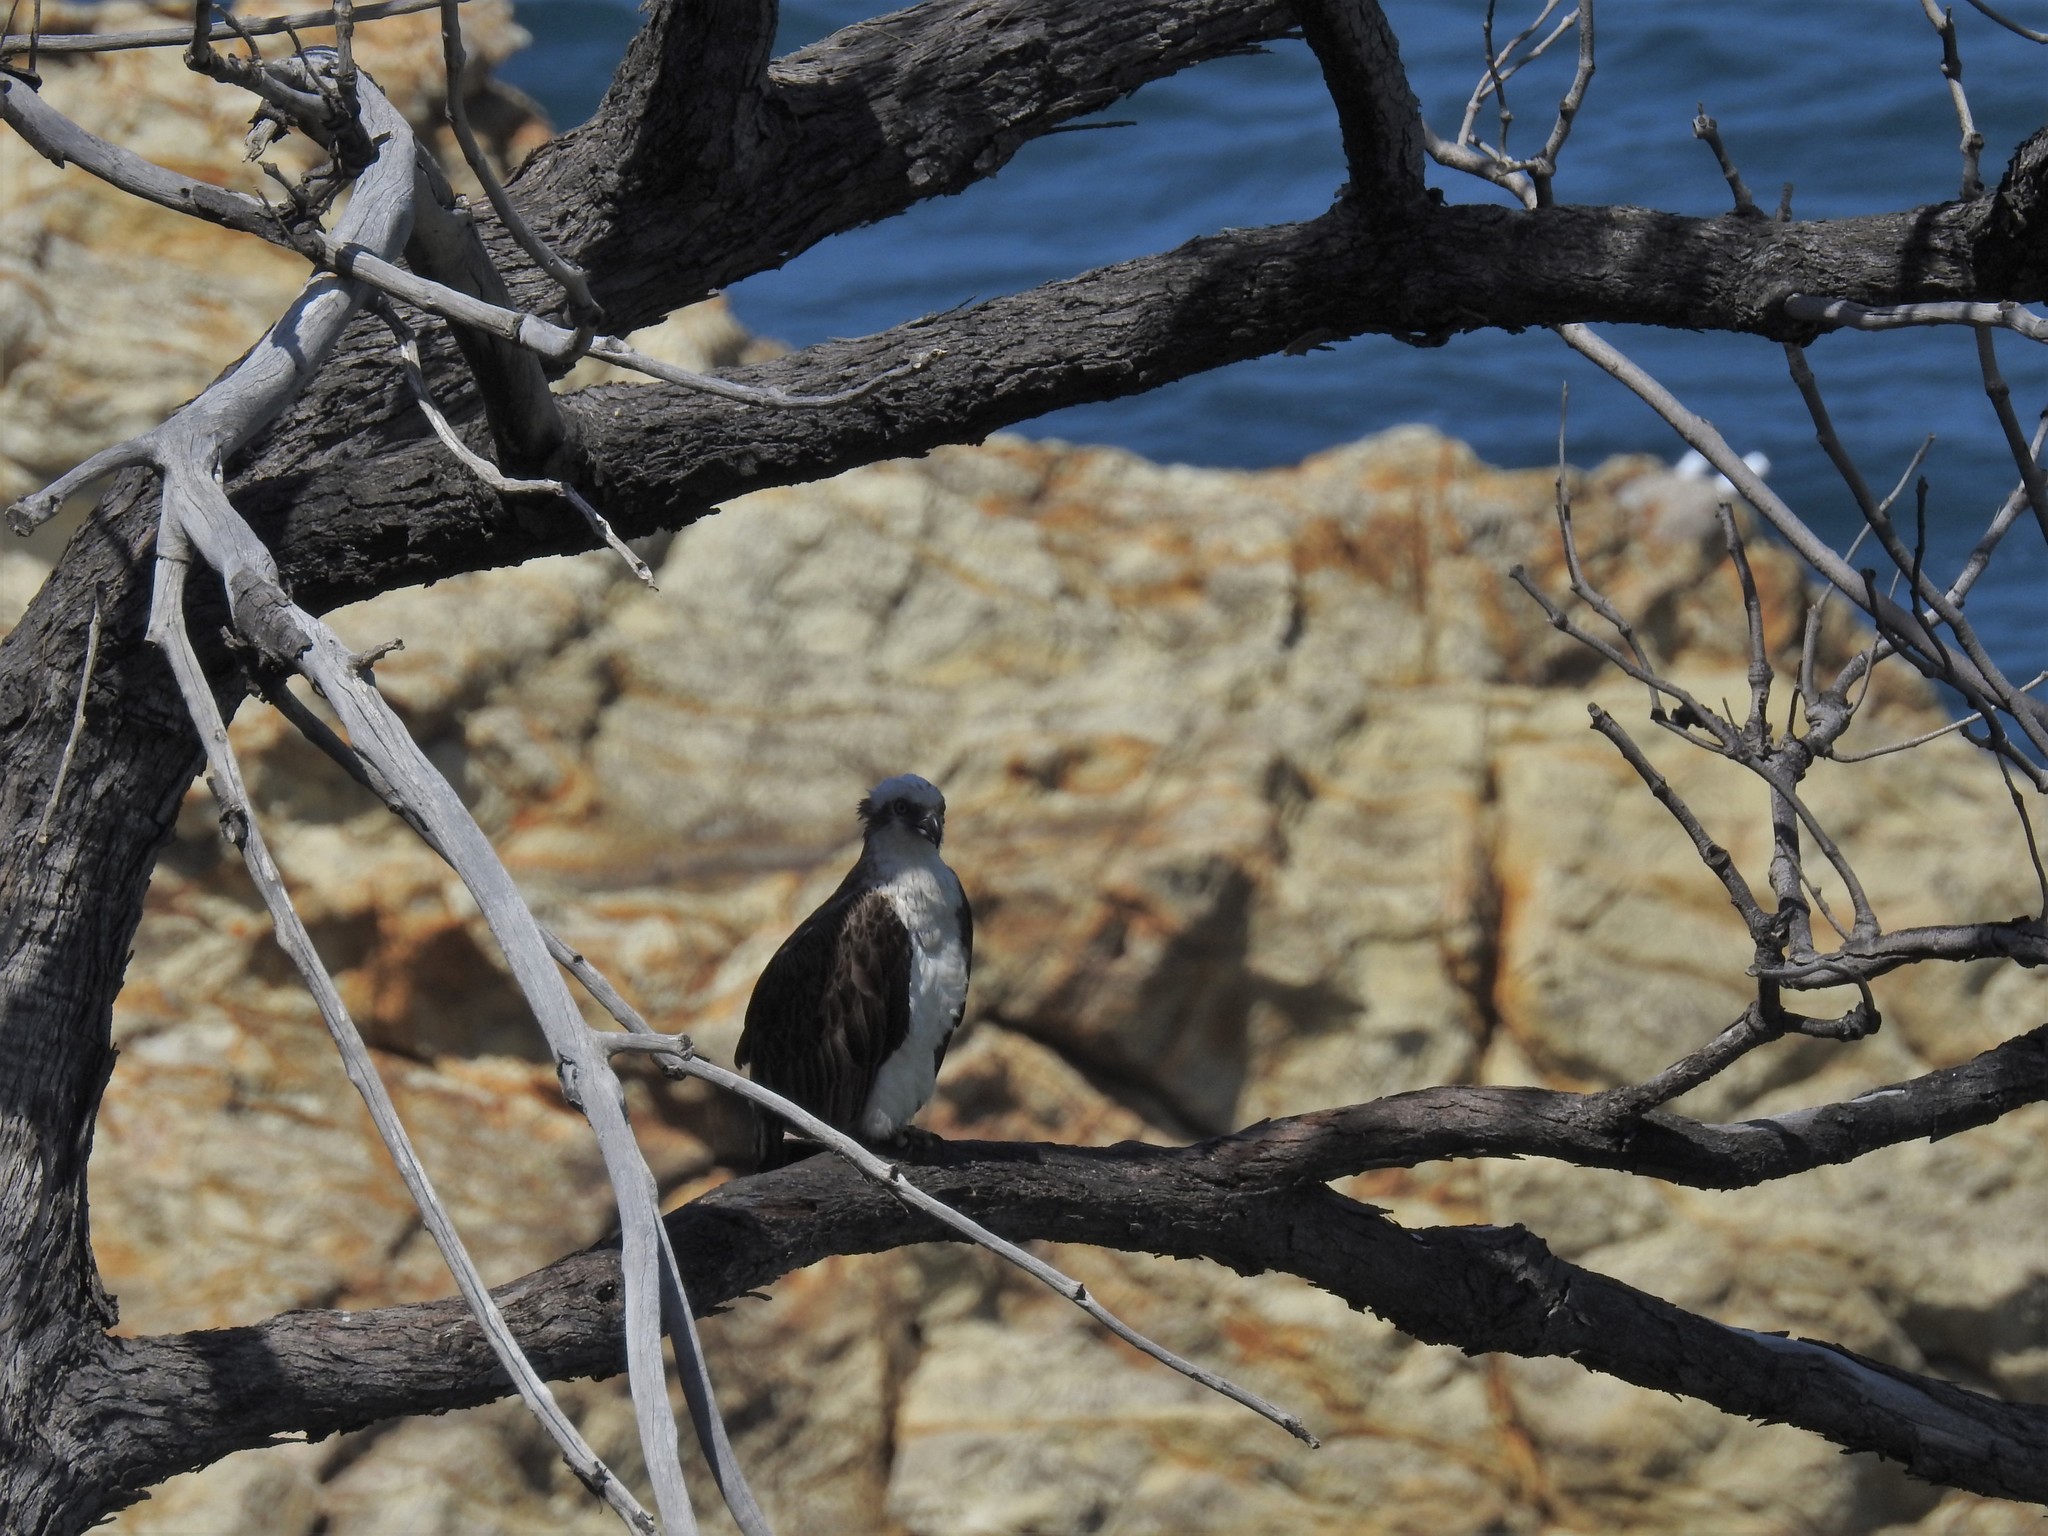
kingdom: Animalia
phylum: Chordata
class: Aves
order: Accipitriformes
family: Pandionidae
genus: Pandion
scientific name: Pandion haliaetus
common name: Osprey
